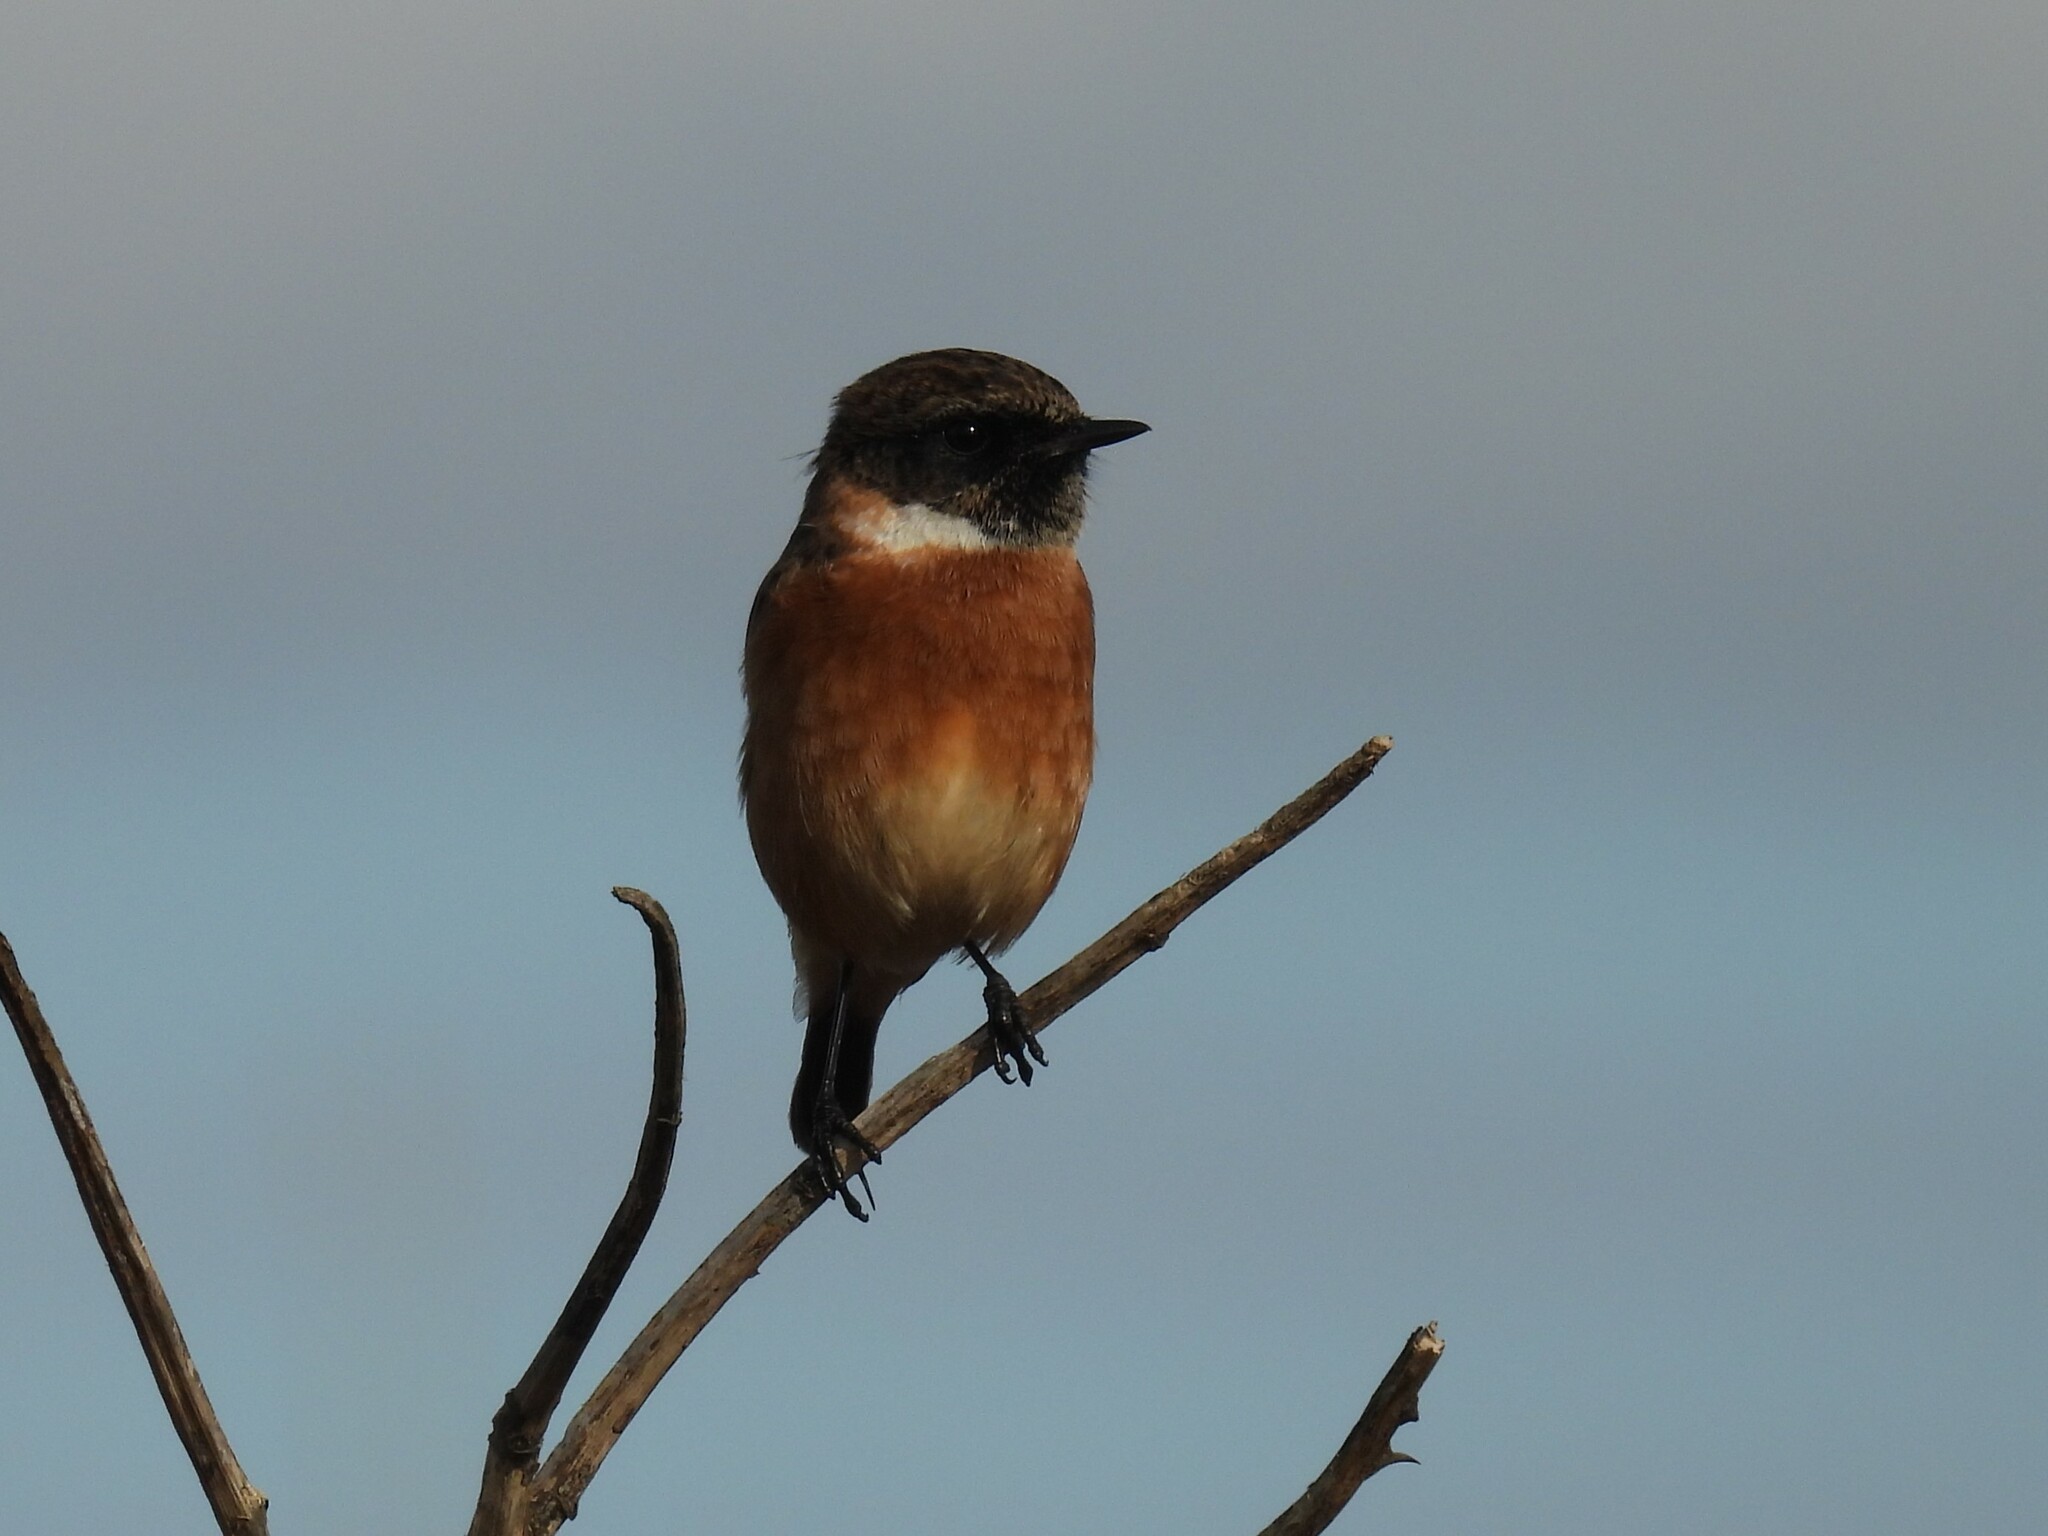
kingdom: Animalia
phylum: Chordata
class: Aves
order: Passeriformes
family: Muscicapidae
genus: Saxicola
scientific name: Saxicola rubicola
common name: European stonechat
